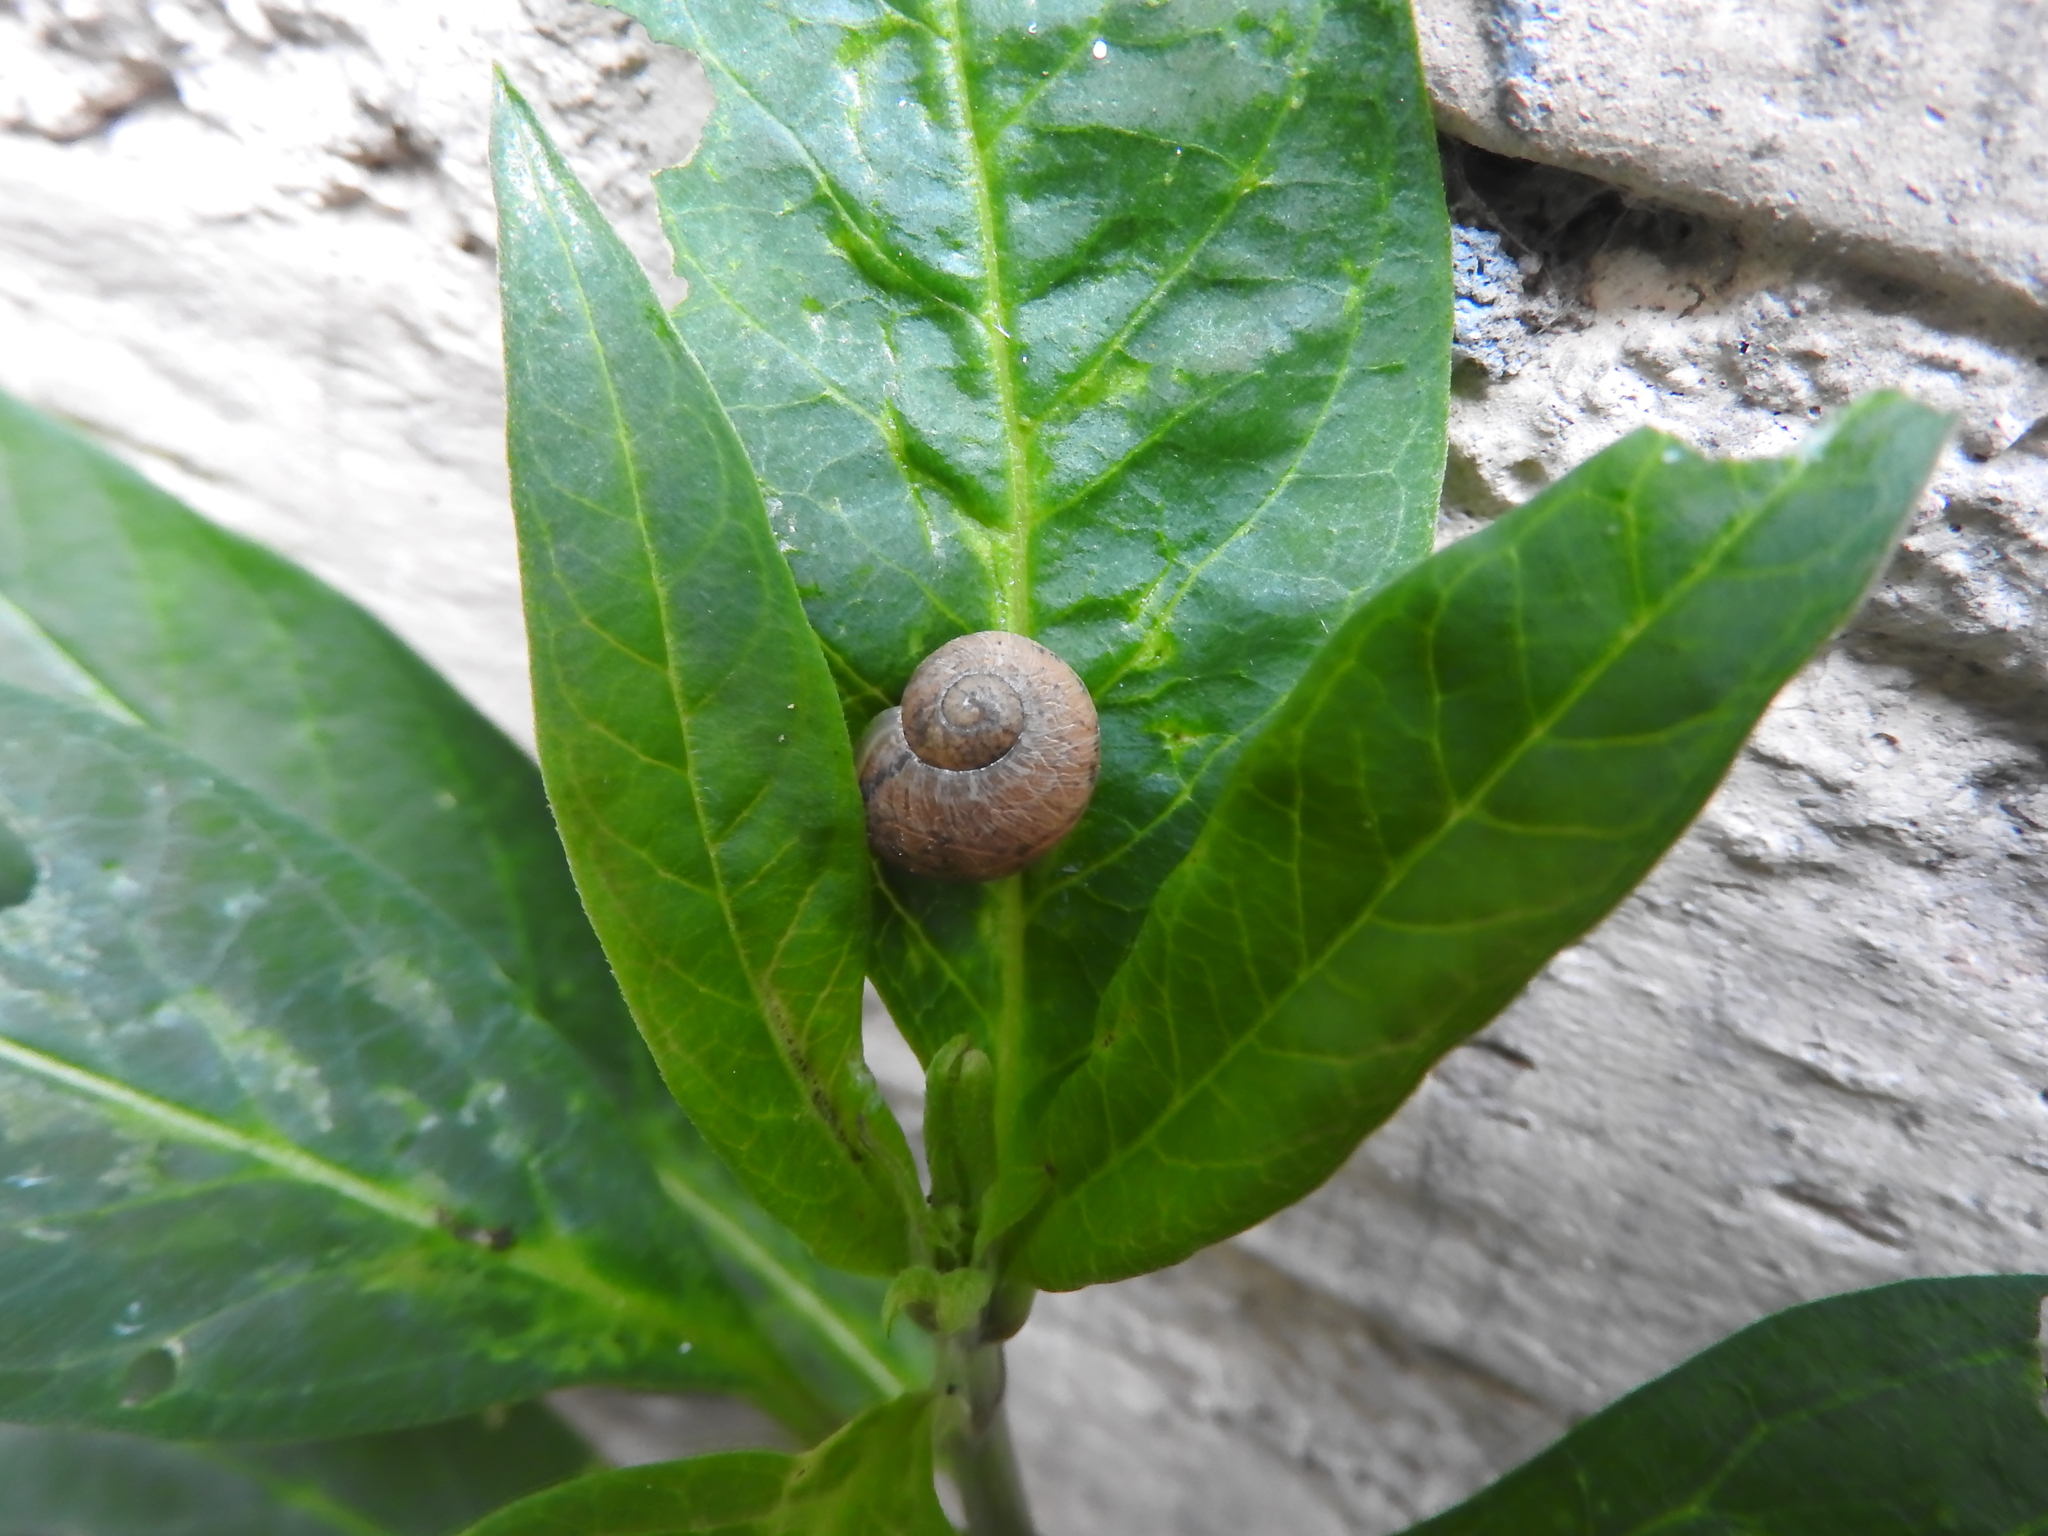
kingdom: Animalia
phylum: Mollusca
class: Gastropoda
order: Stylommatophora
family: Helicidae
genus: Cornu
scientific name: Cornu aspersum
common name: Brown garden snail
